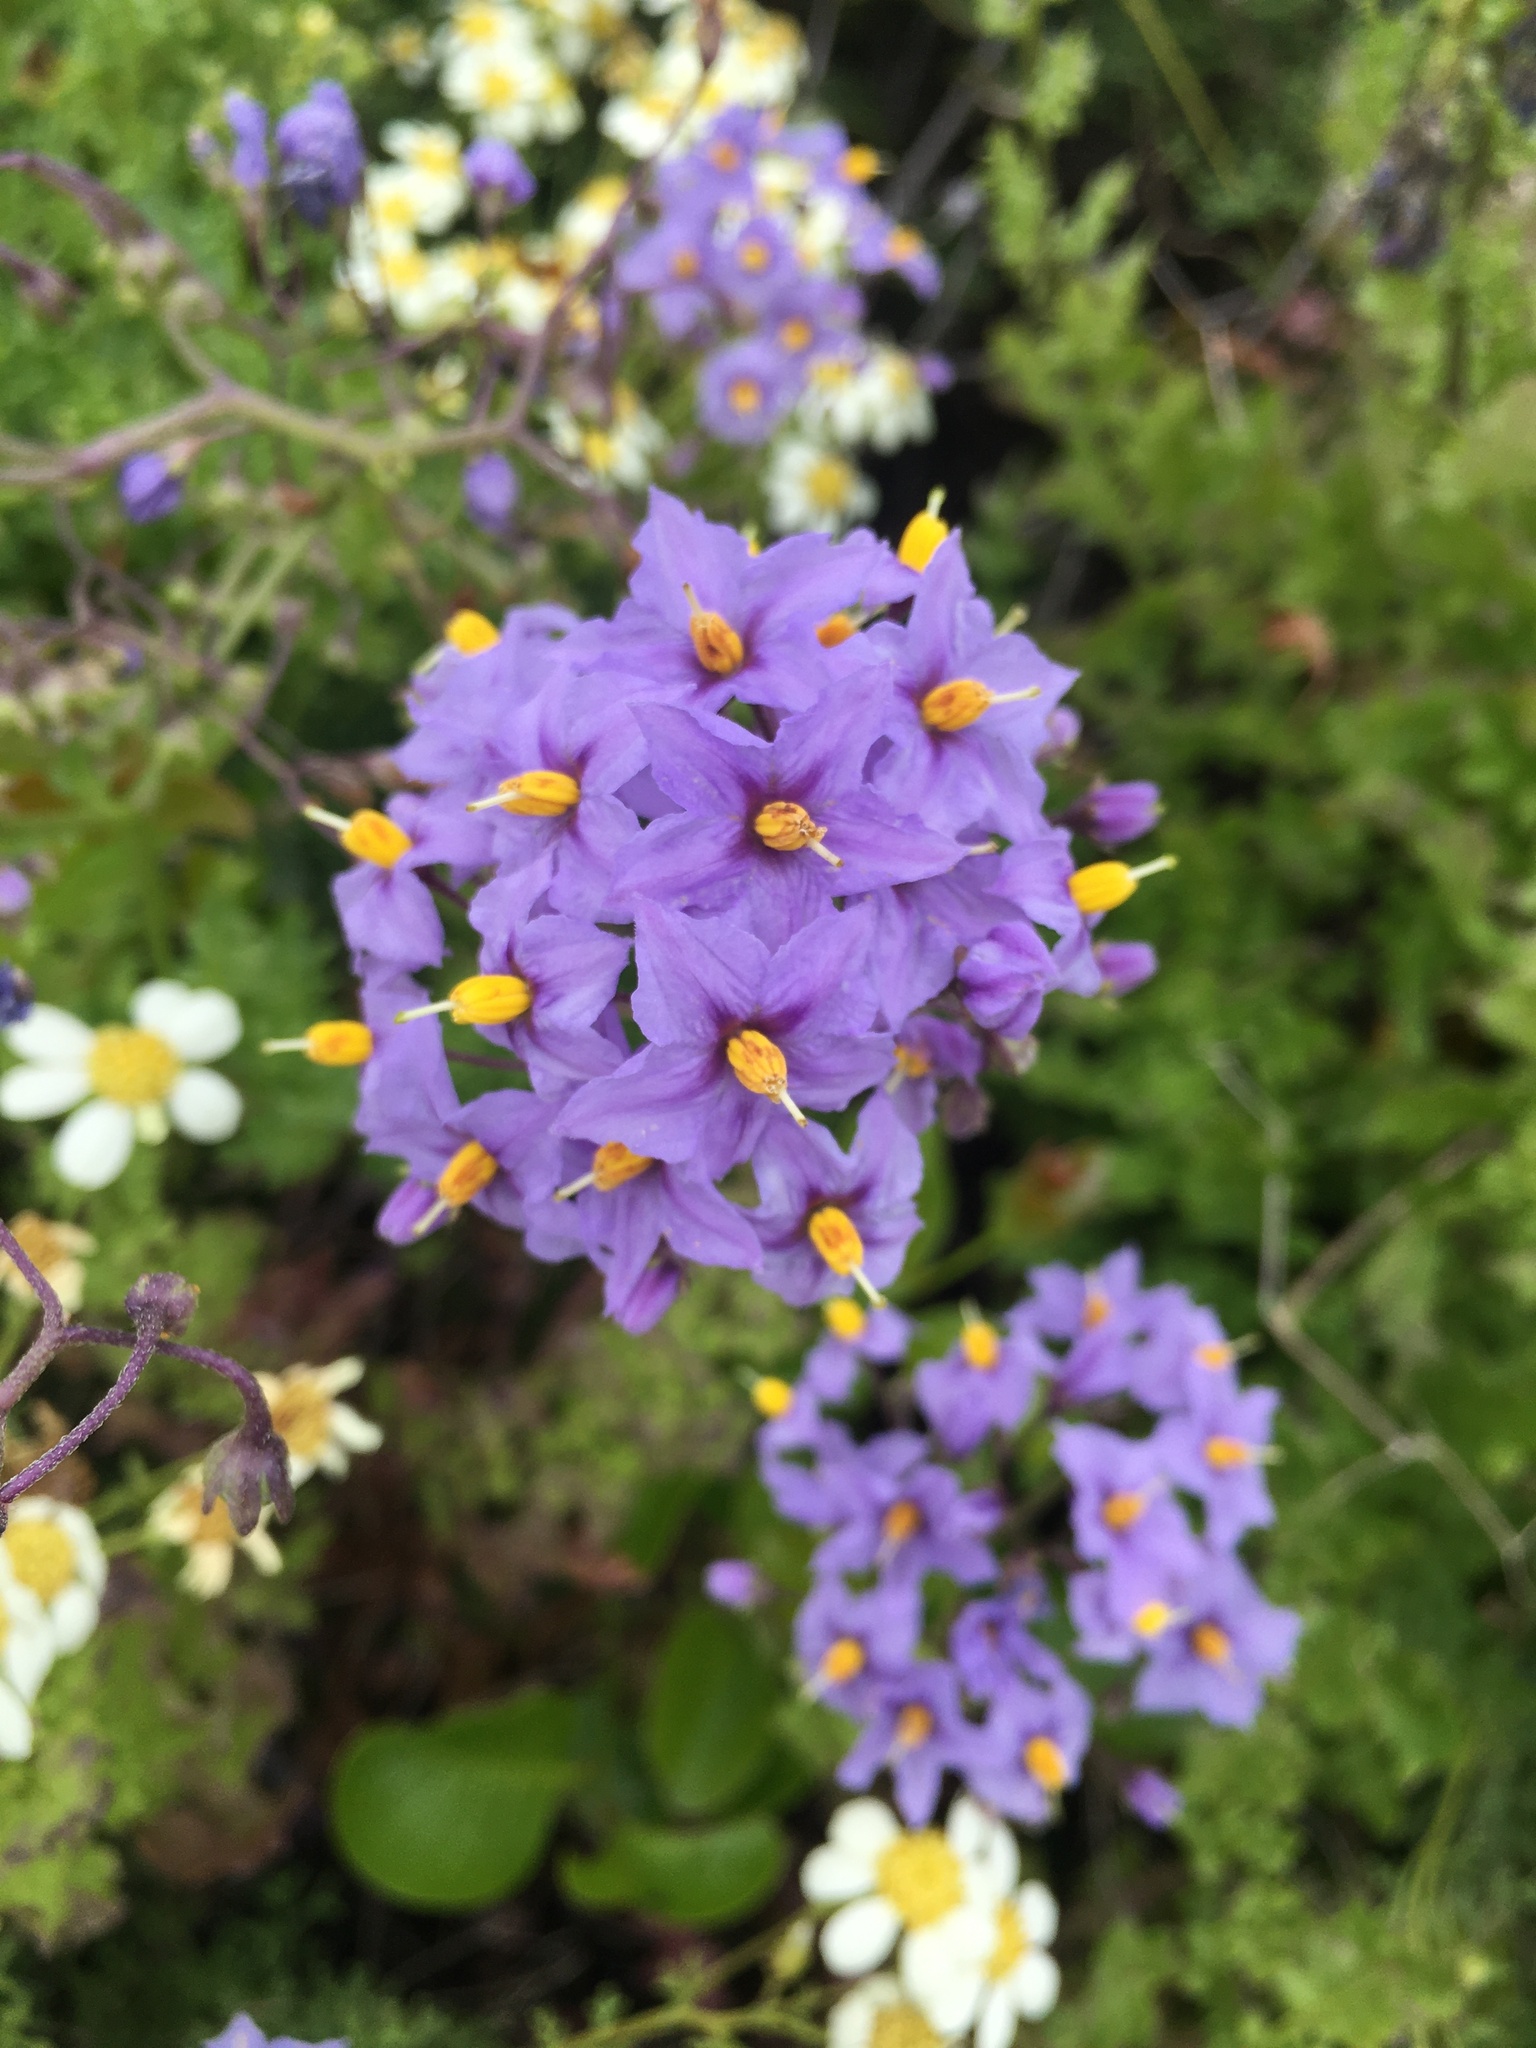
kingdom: Plantae
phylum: Tracheophyta
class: Magnoliopsida
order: Solanales
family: Solanaceae
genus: Solanum
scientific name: Solanum pinnatum
